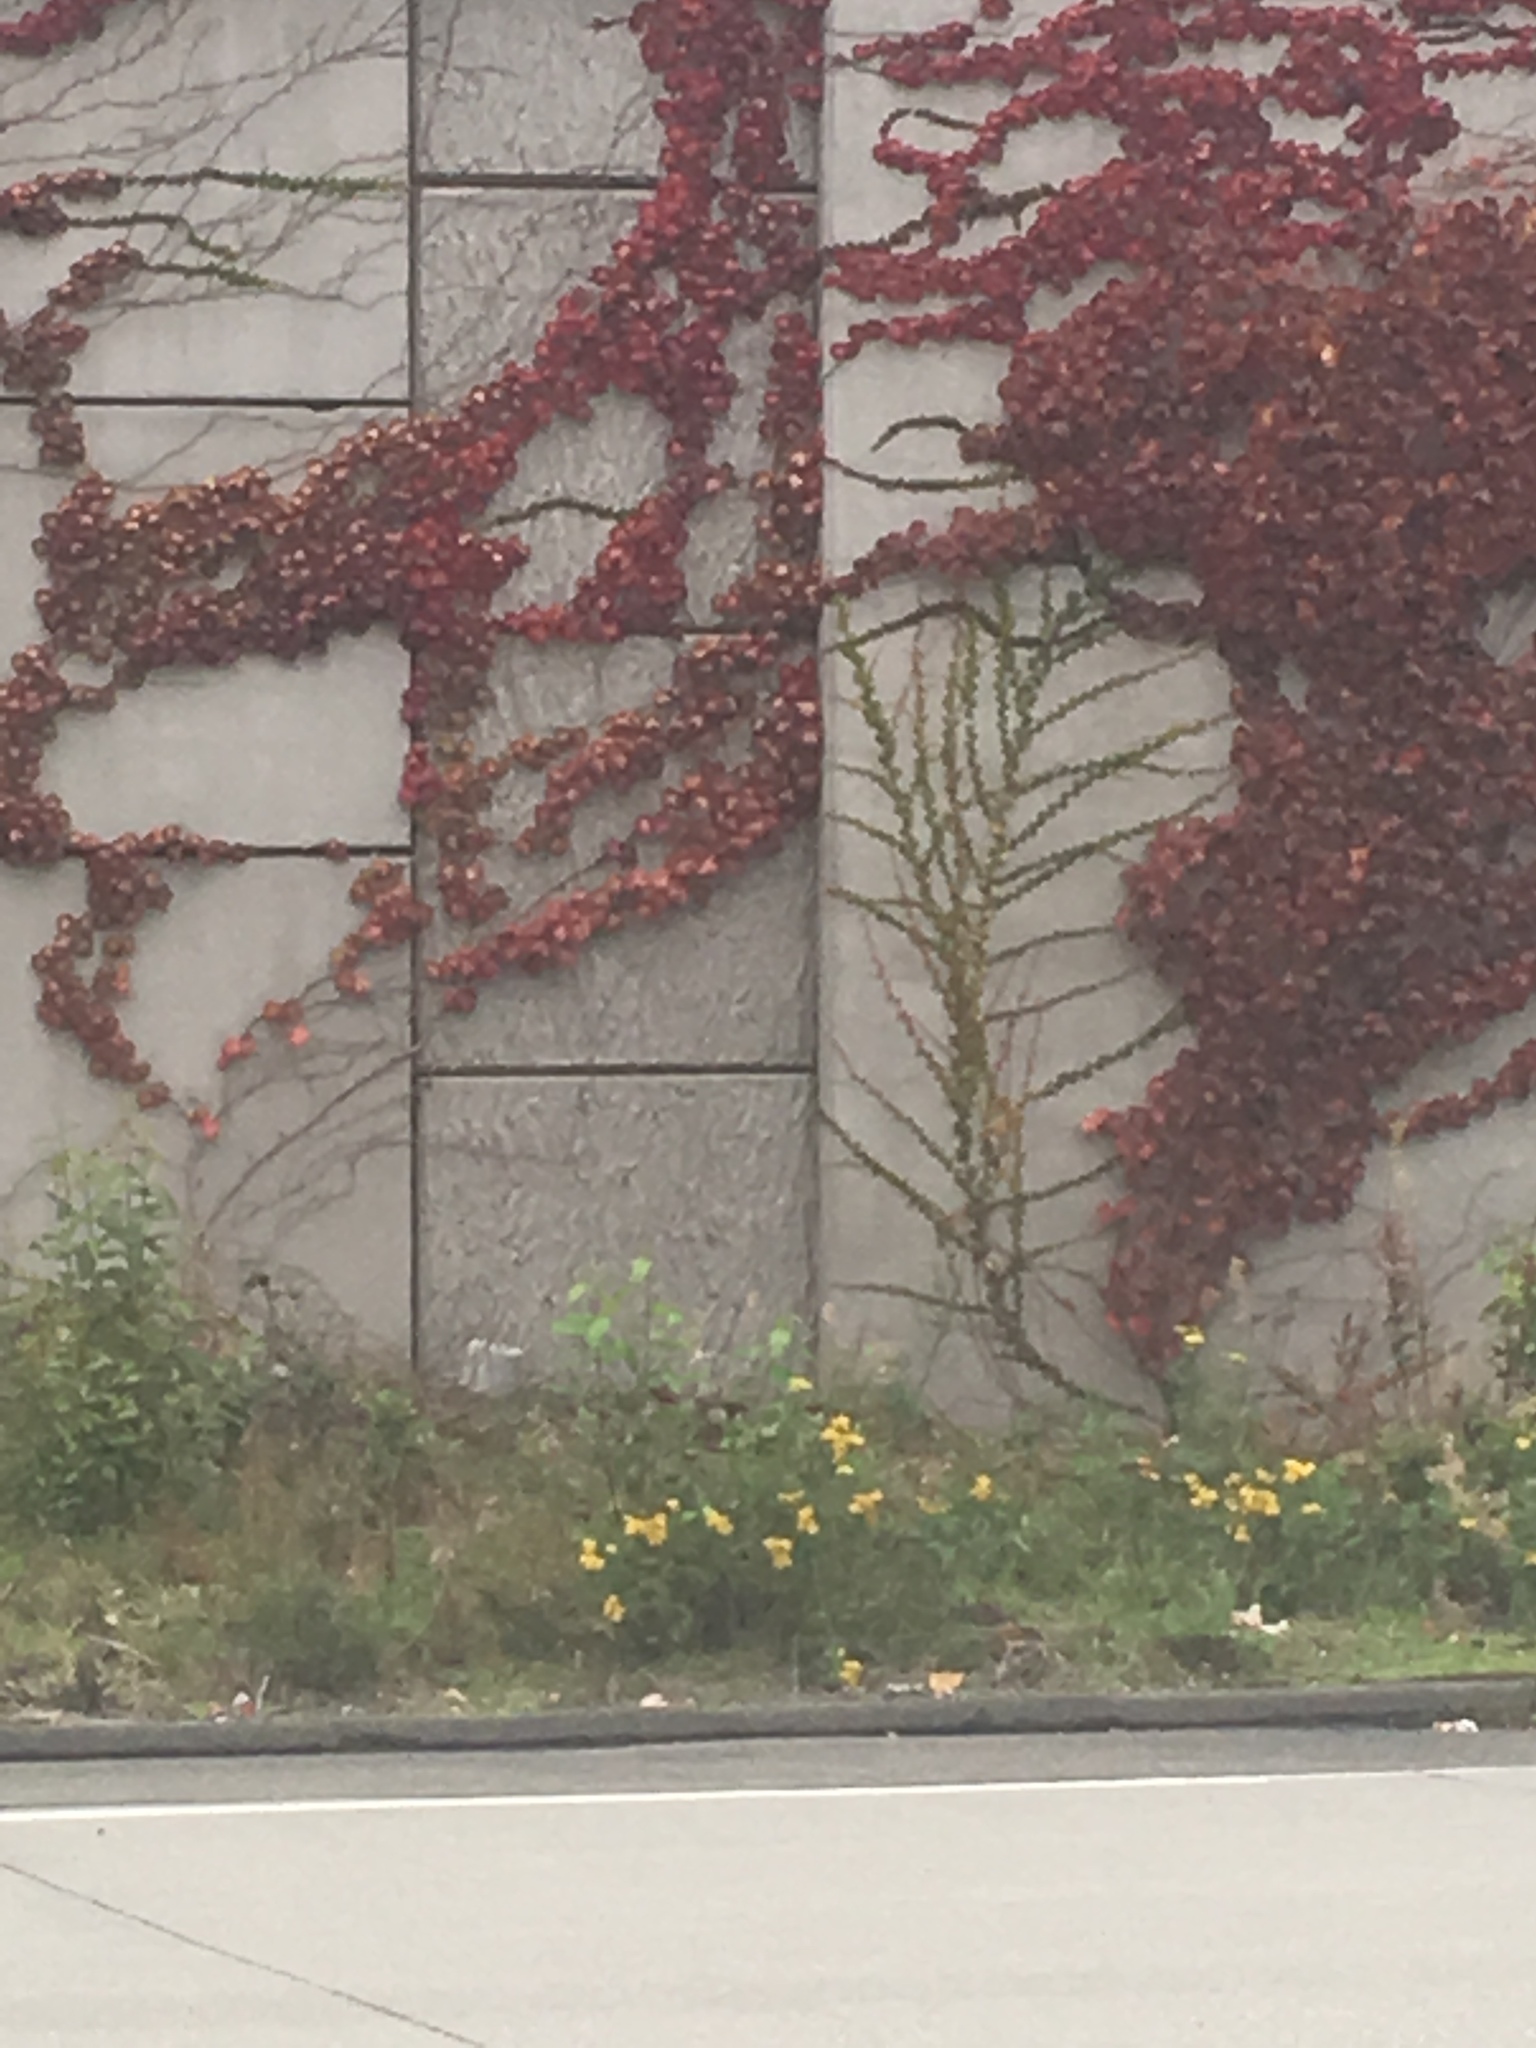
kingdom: Plantae
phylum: Tracheophyta
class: Magnoliopsida
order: Asterales
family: Asteraceae
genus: Tanacetum
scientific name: Tanacetum vulgare
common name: Common tansy
